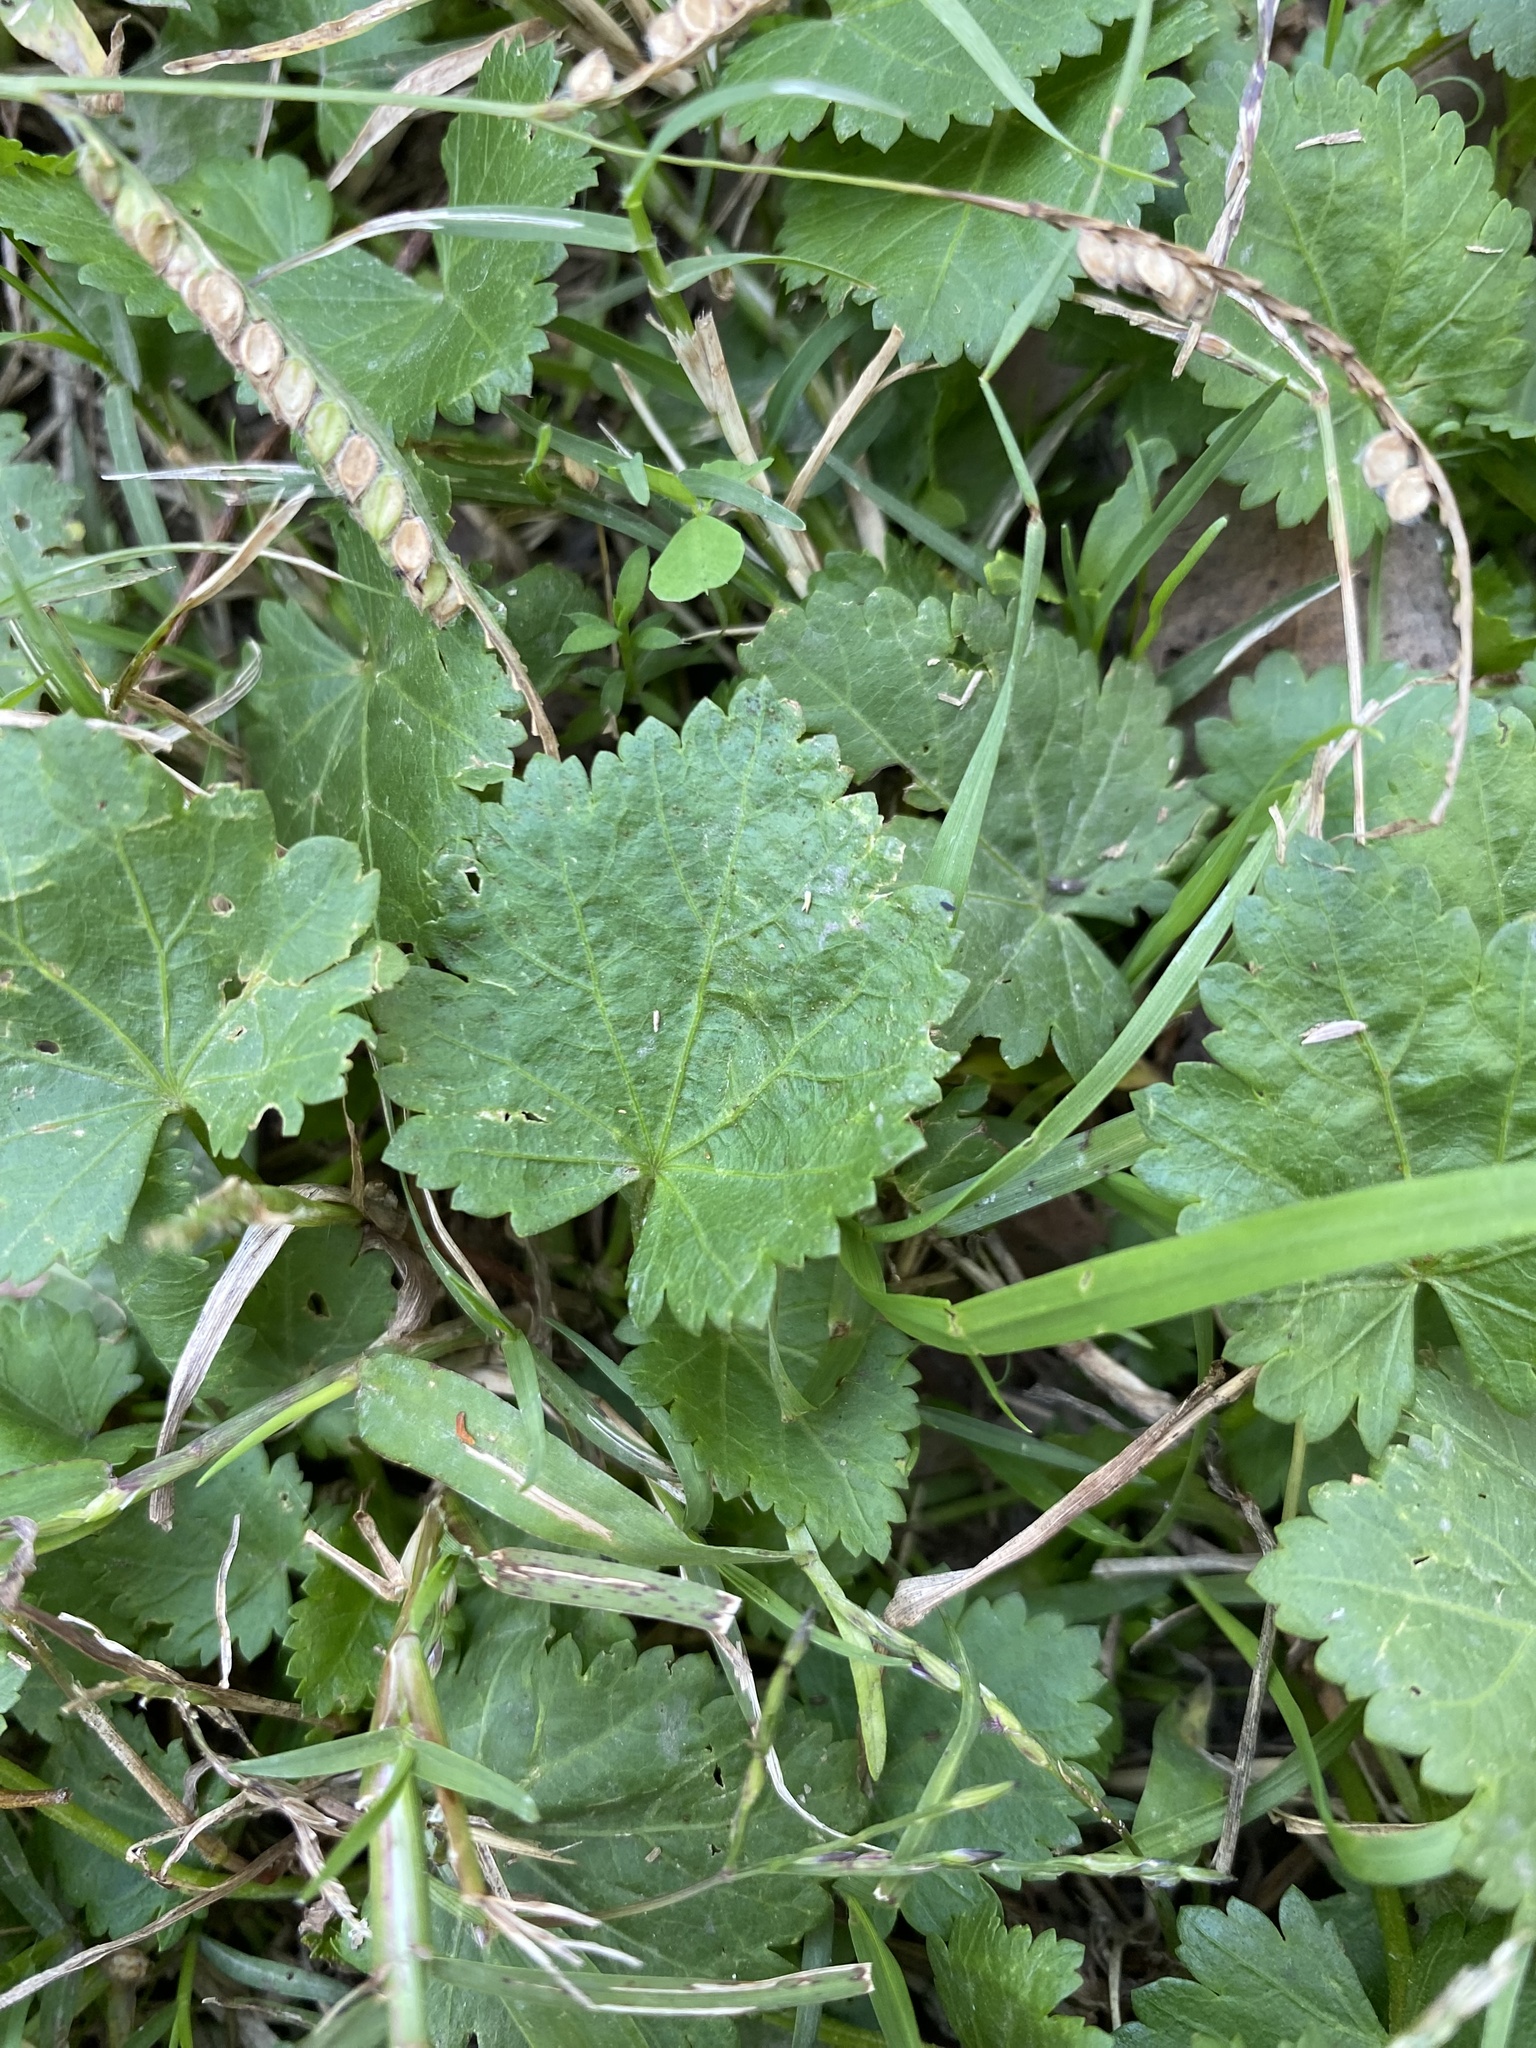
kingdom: Plantae
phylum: Tracheophyta
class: Magnoliopsida
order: Malvales
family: Malvaceae
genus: Modiola
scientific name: Modiola caroliniana
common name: Carolina bristlemallow
